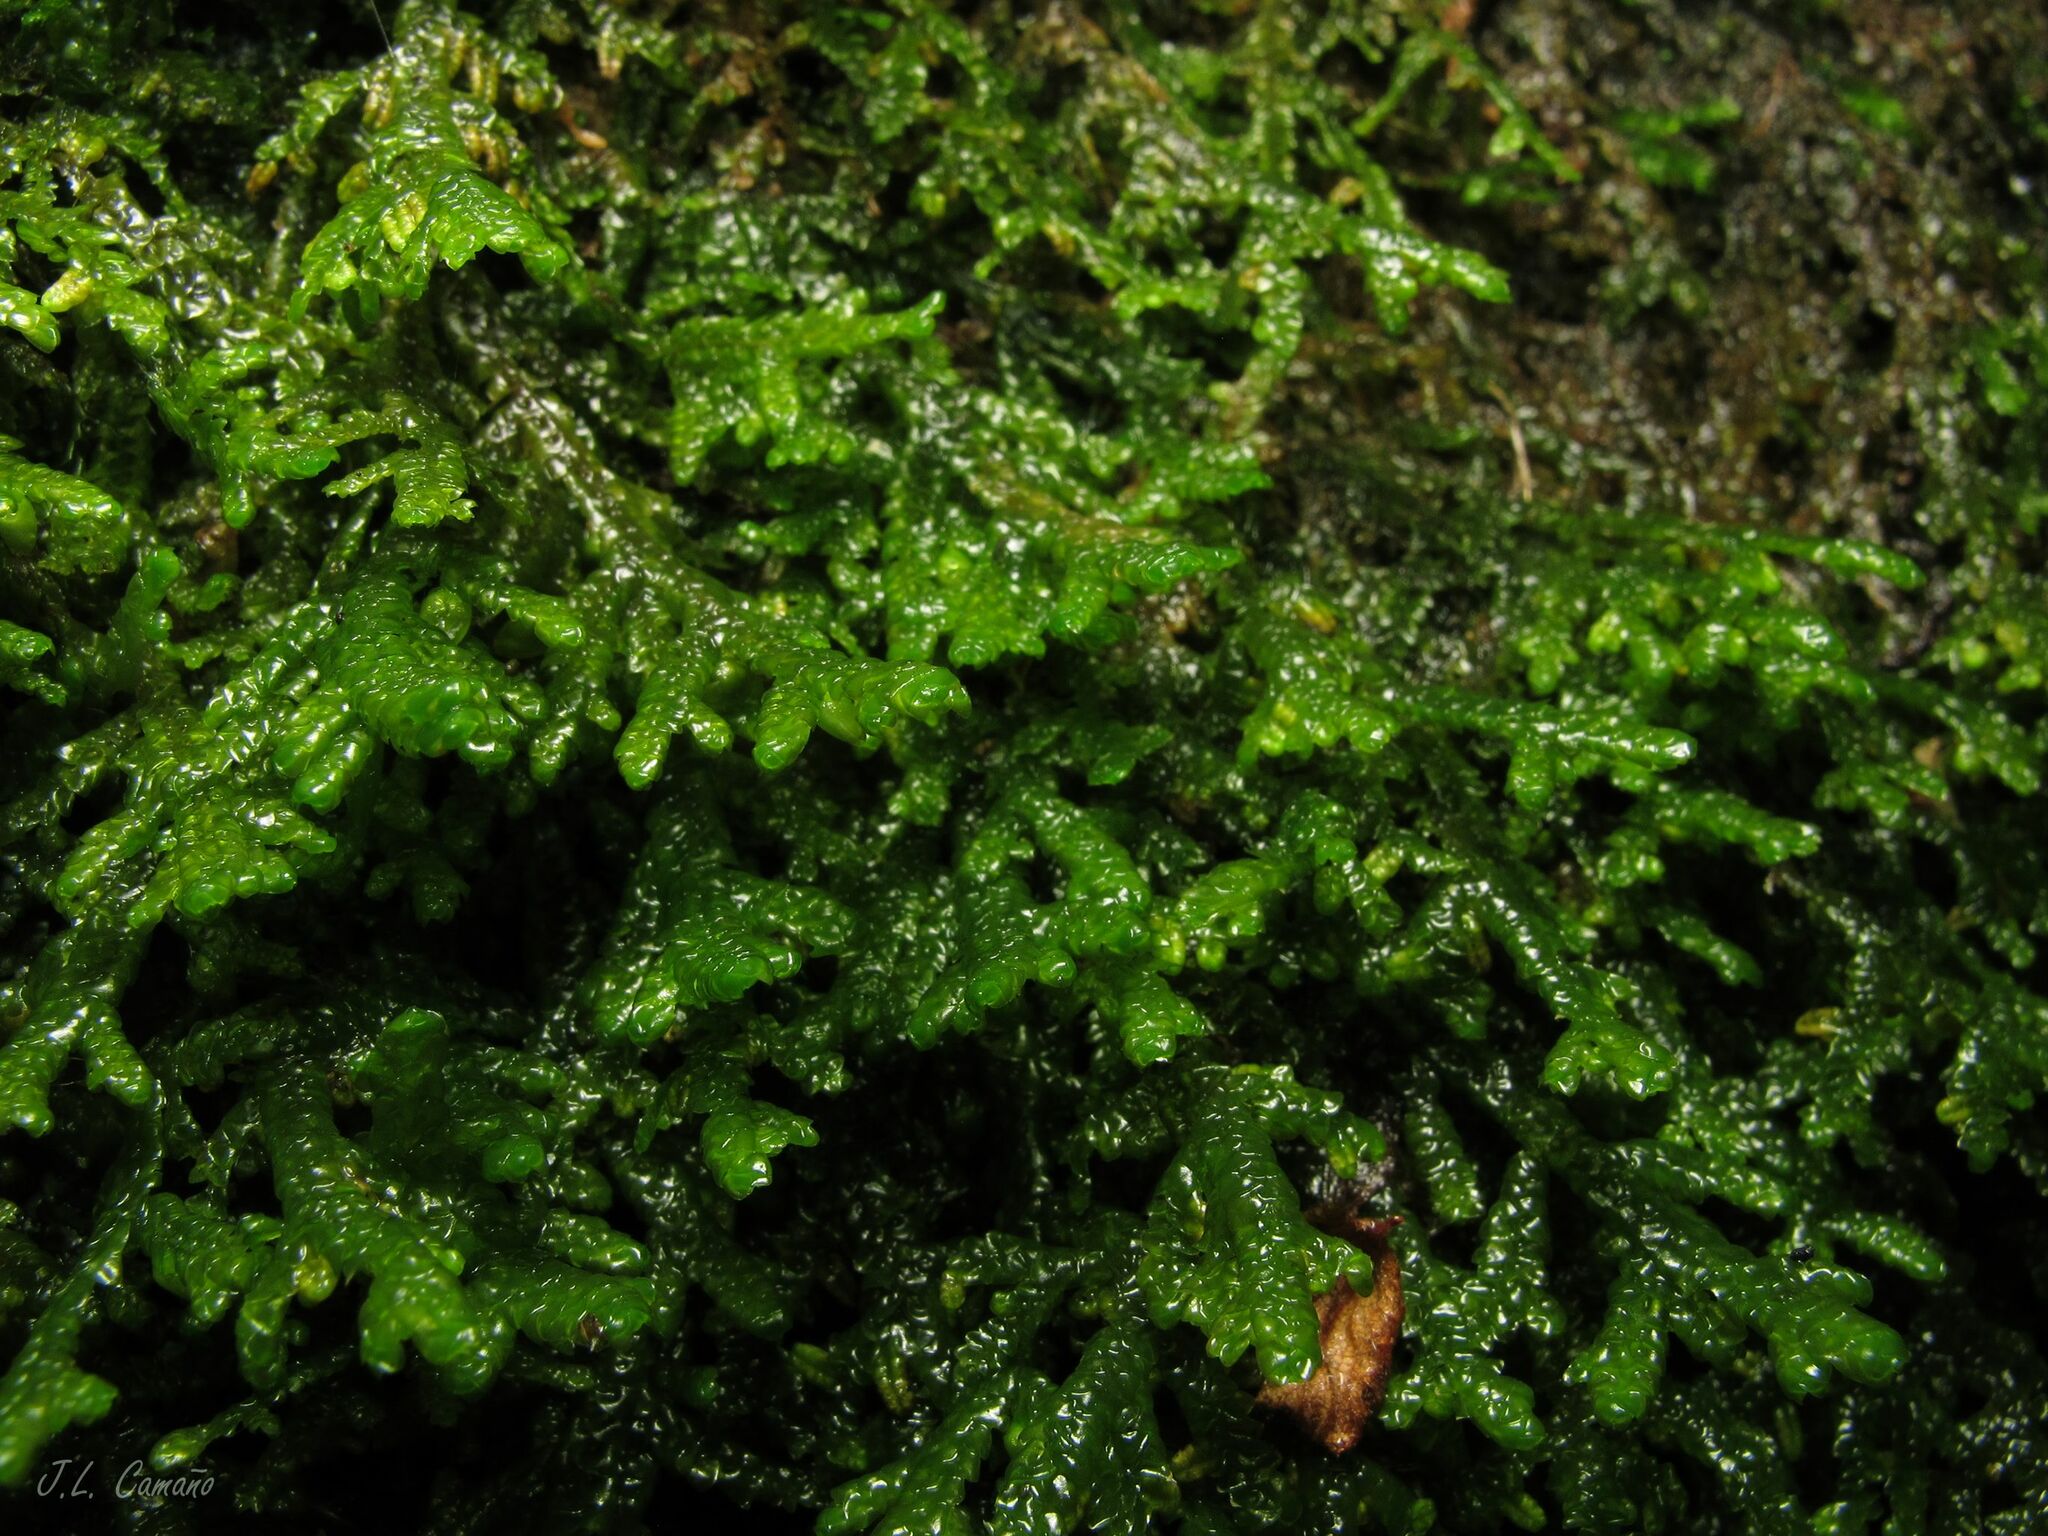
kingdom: Plantae
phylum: Marchantiophyta
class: Jungermanniopsida
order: Porellales
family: Porellaceae
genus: Porella
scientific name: Porella platyphylla
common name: Wall scalewort
